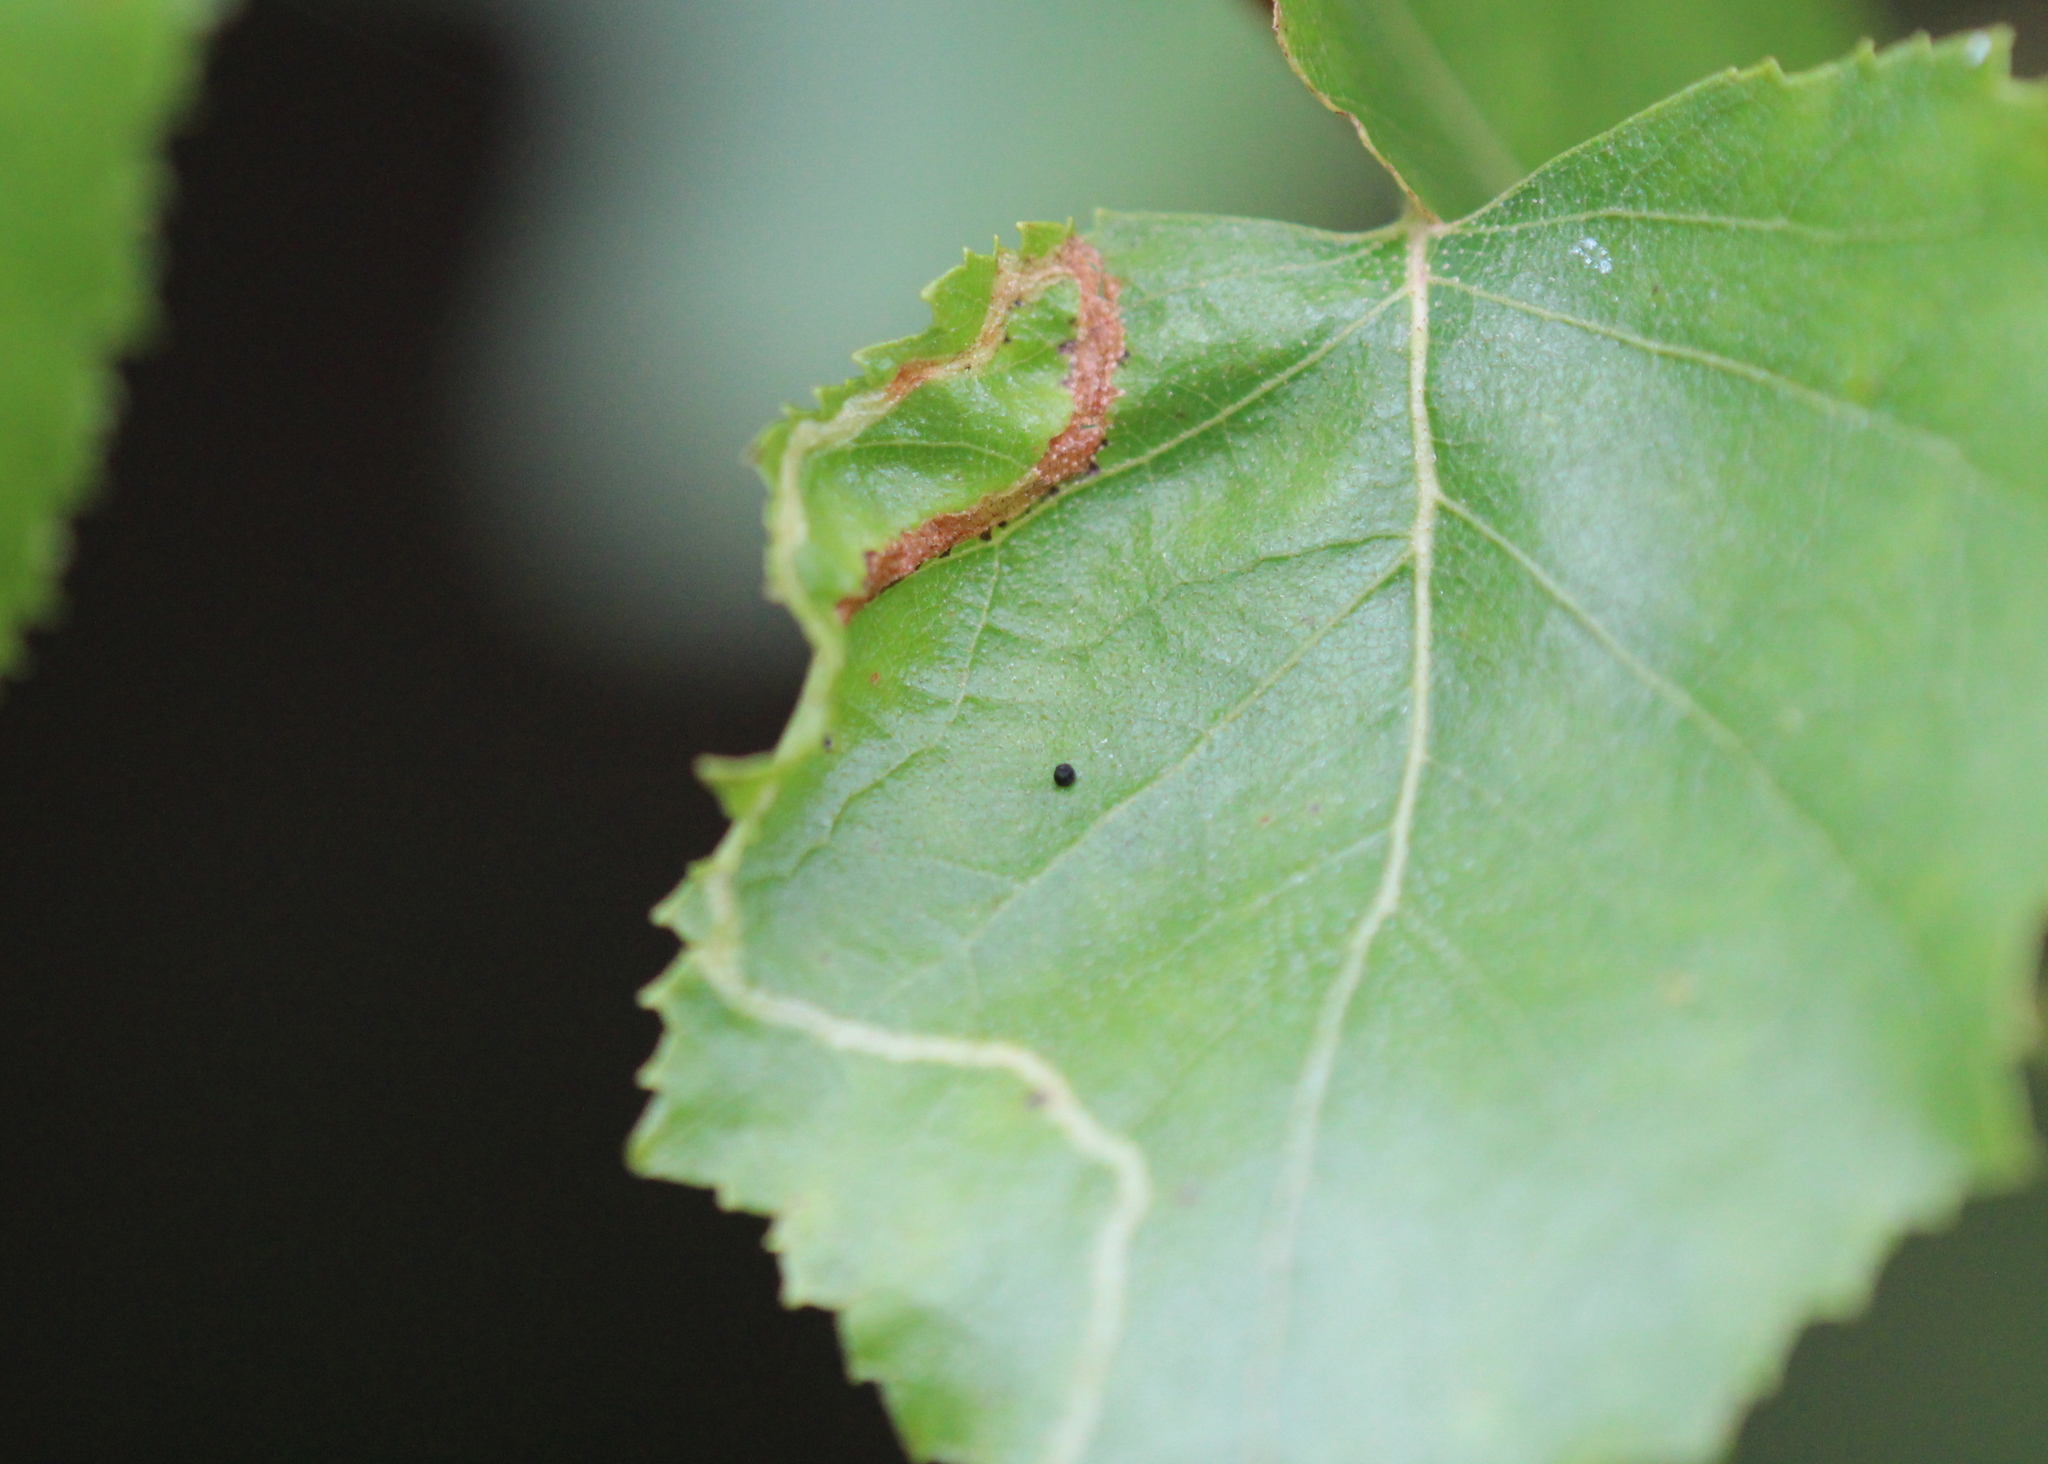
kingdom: Animalia
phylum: Arthropoda
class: Insecta
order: Diptera
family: Agromyzidae
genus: Agromyza
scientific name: Agromyza alnibetulae
